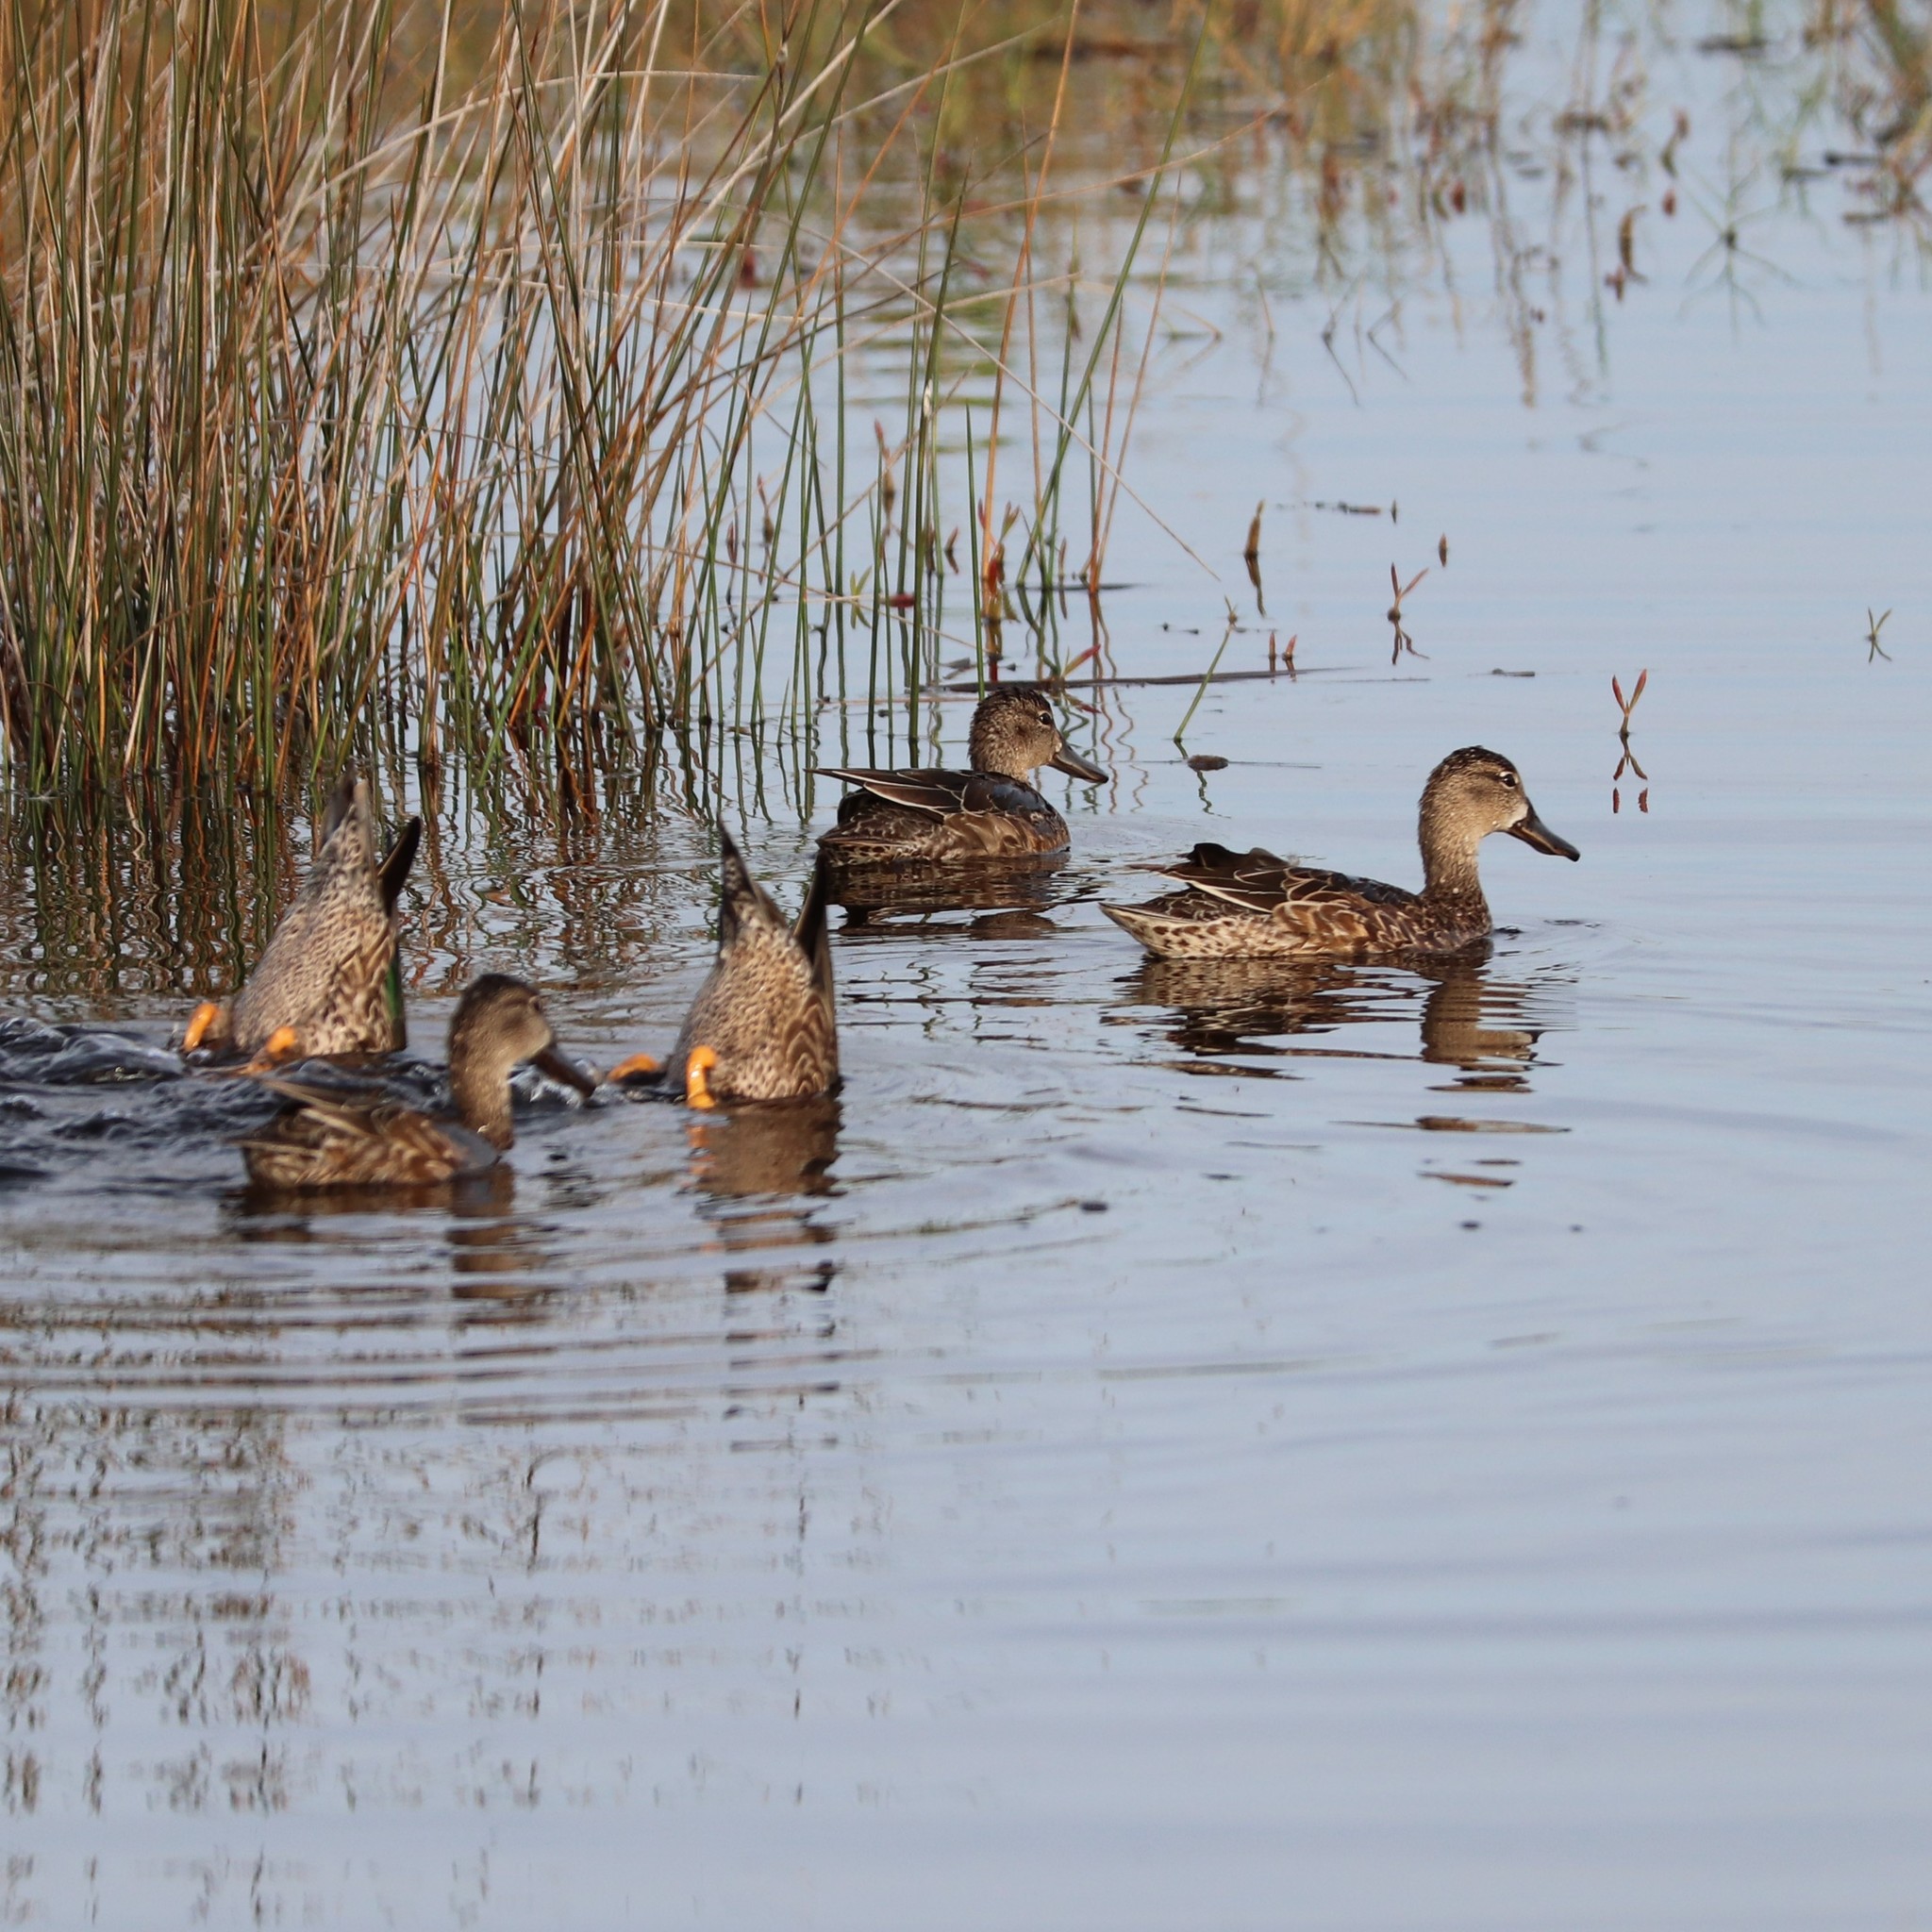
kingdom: Animalia
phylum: Chordata
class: Aves
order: Anseriformes
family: Anatidae
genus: Spatula
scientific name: Spatula discors
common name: Blue-winged teal
